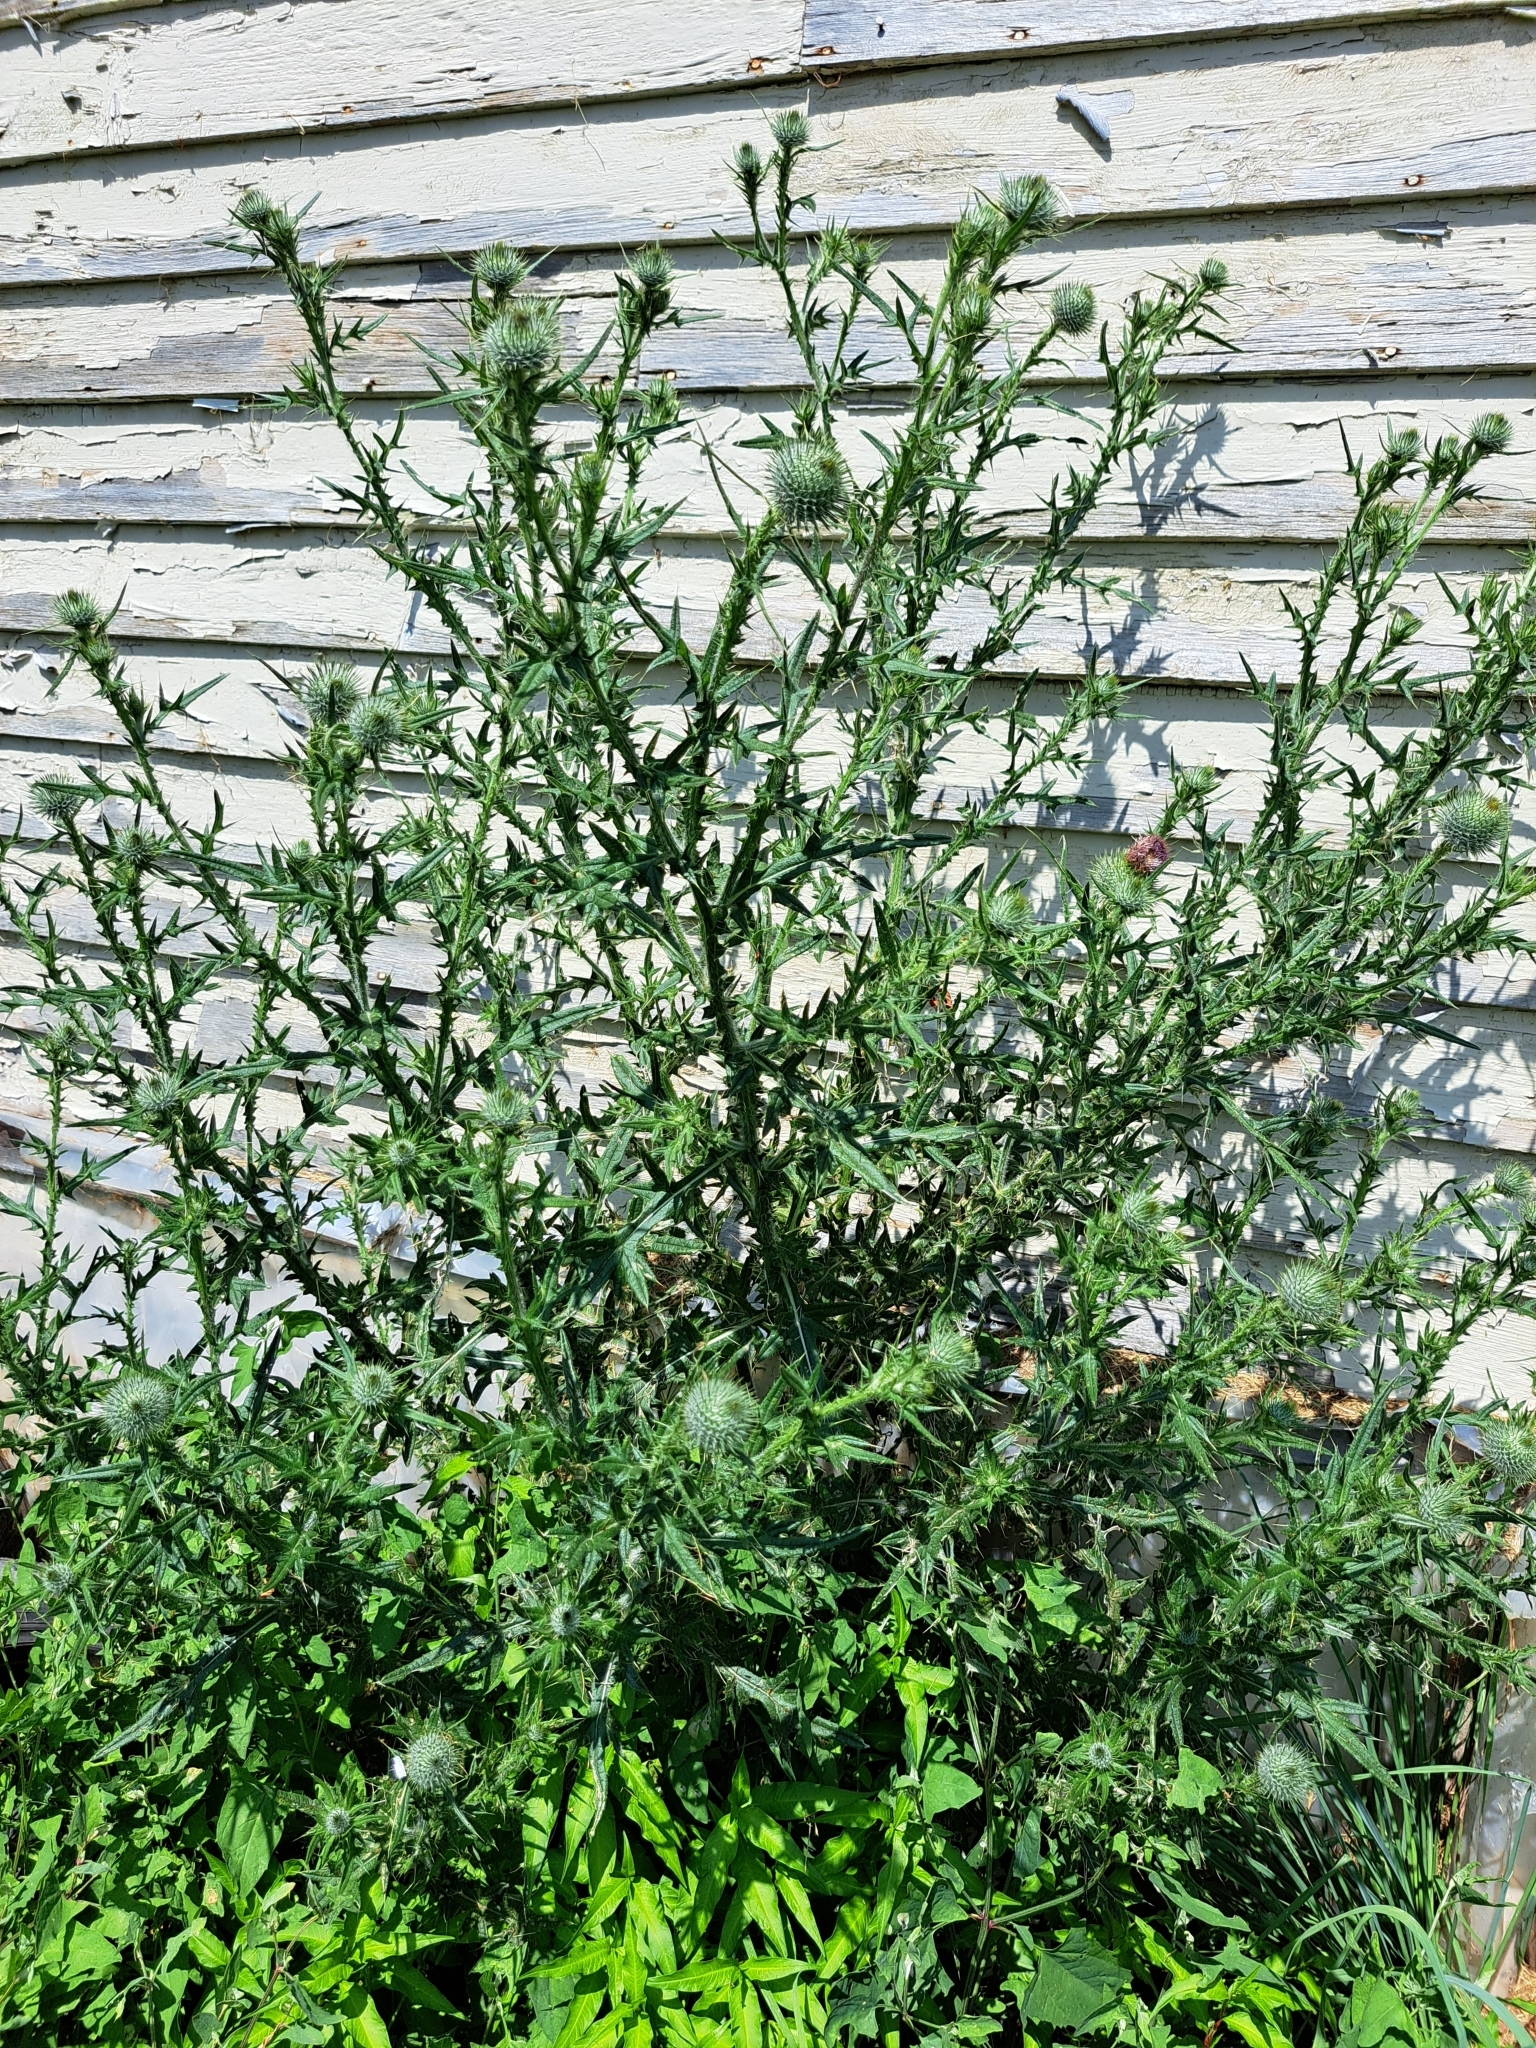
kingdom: Plantae
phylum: Tracheophyta
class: Magnoliopsida
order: Asterales
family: Asteraceae
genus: Cirsium
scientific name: Cirsium vulgare
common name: Bull thistle
